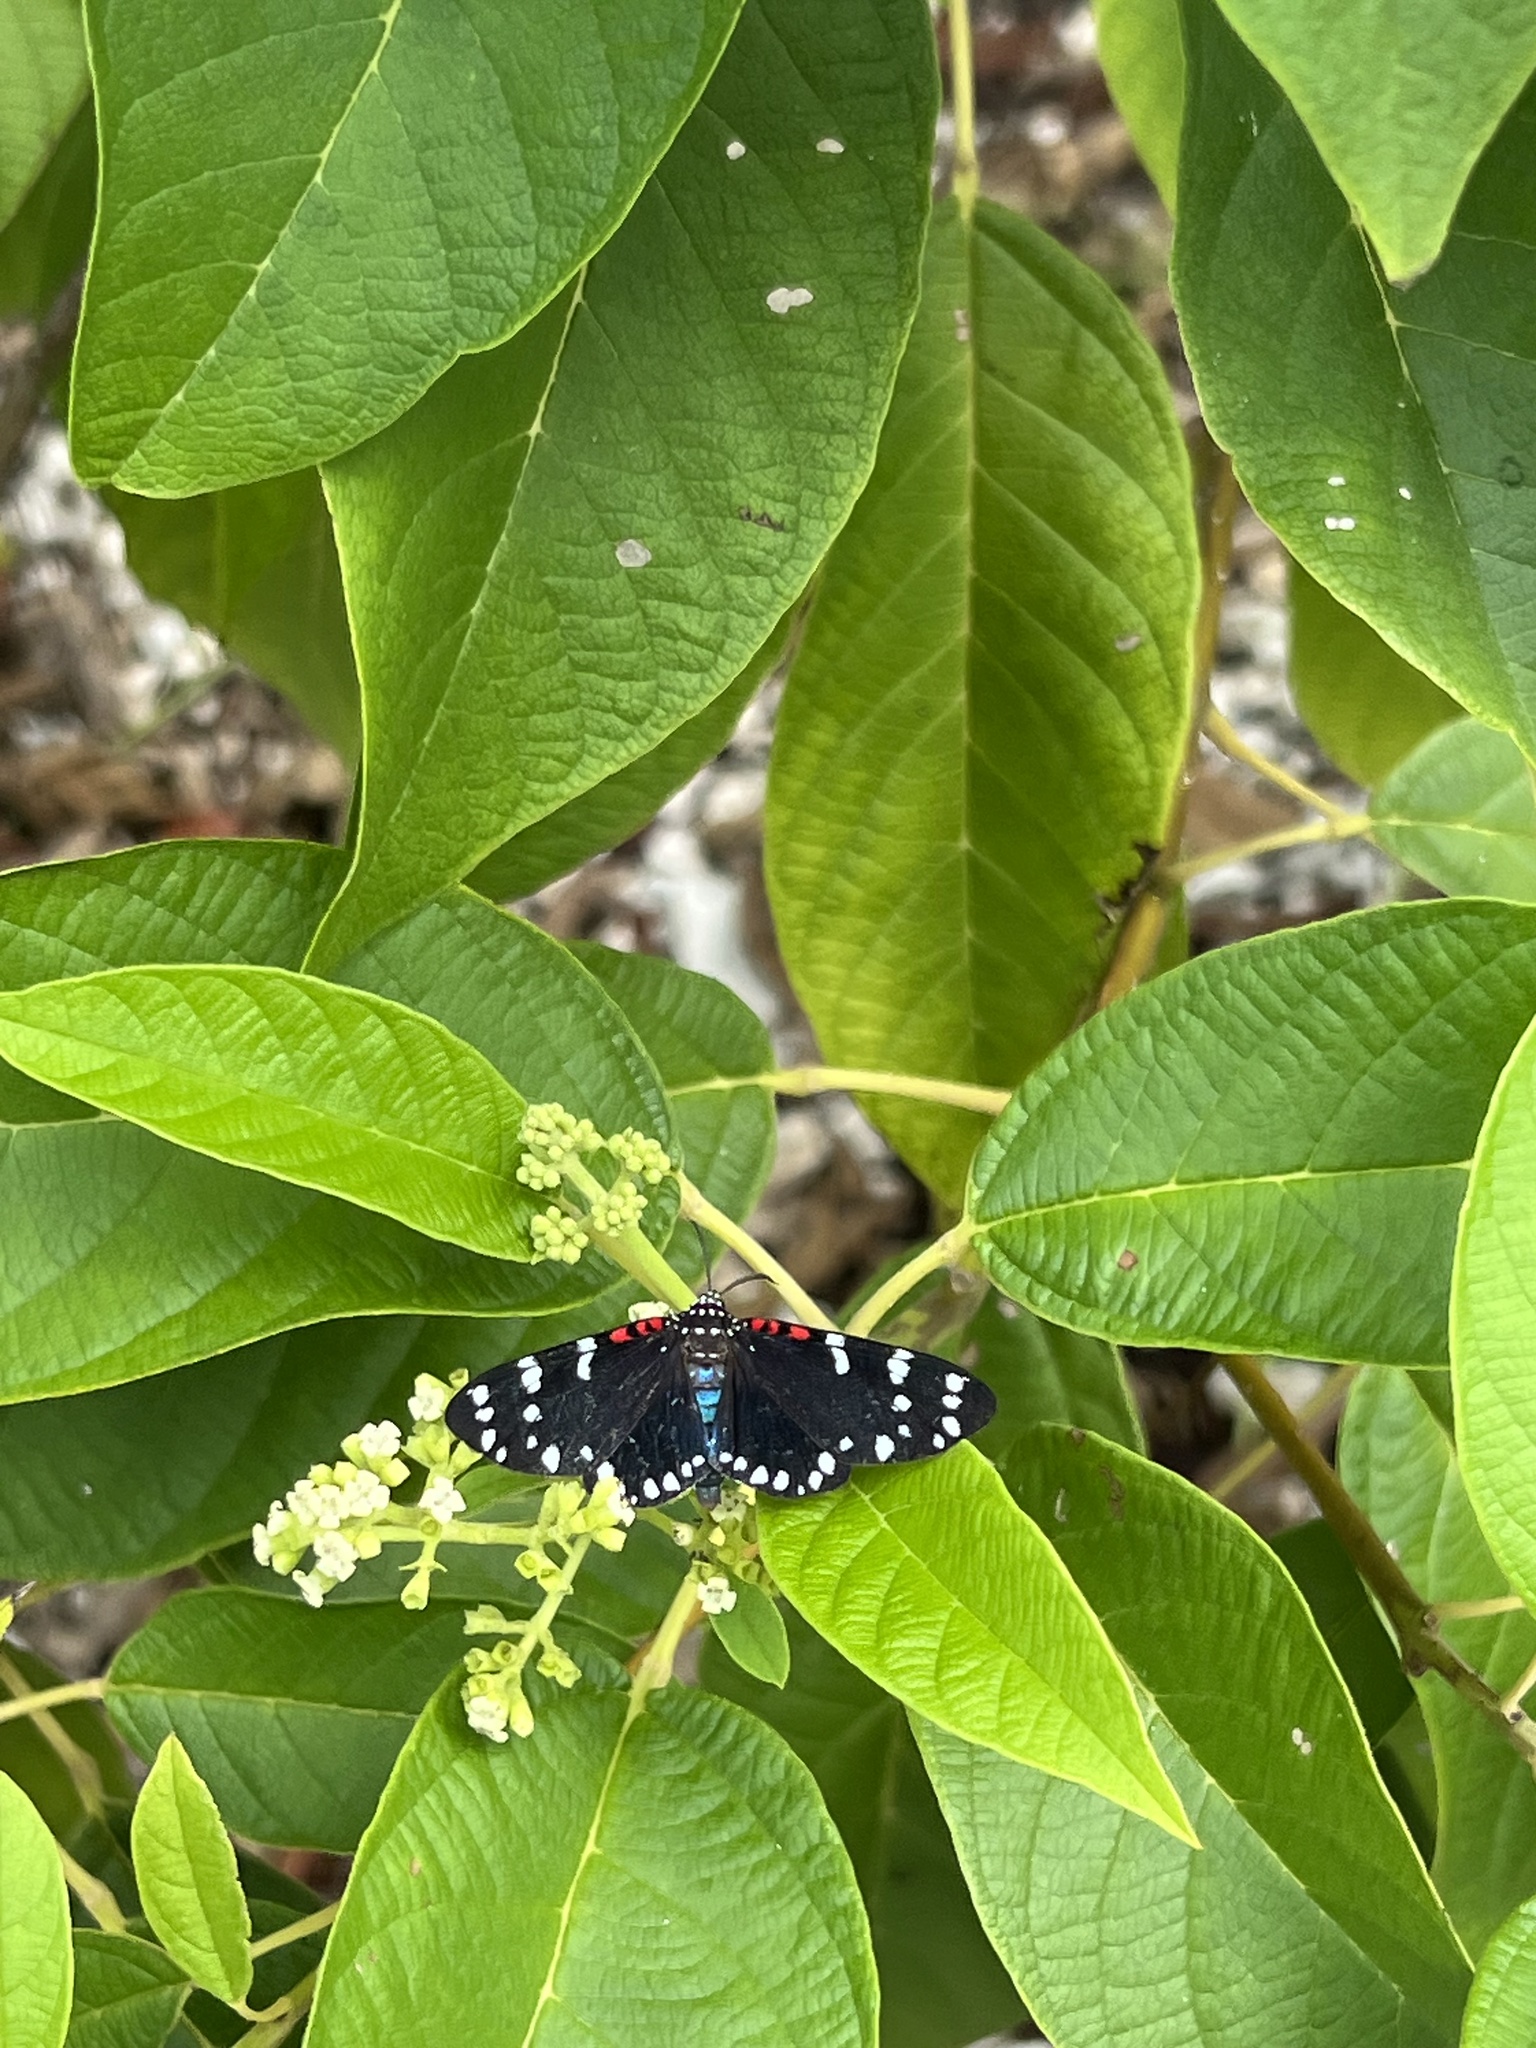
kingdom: Animalia
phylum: Arthropoda
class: Insecta
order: Lepidoptera
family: Erebidae
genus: Composia
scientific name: Composia fidelissima
